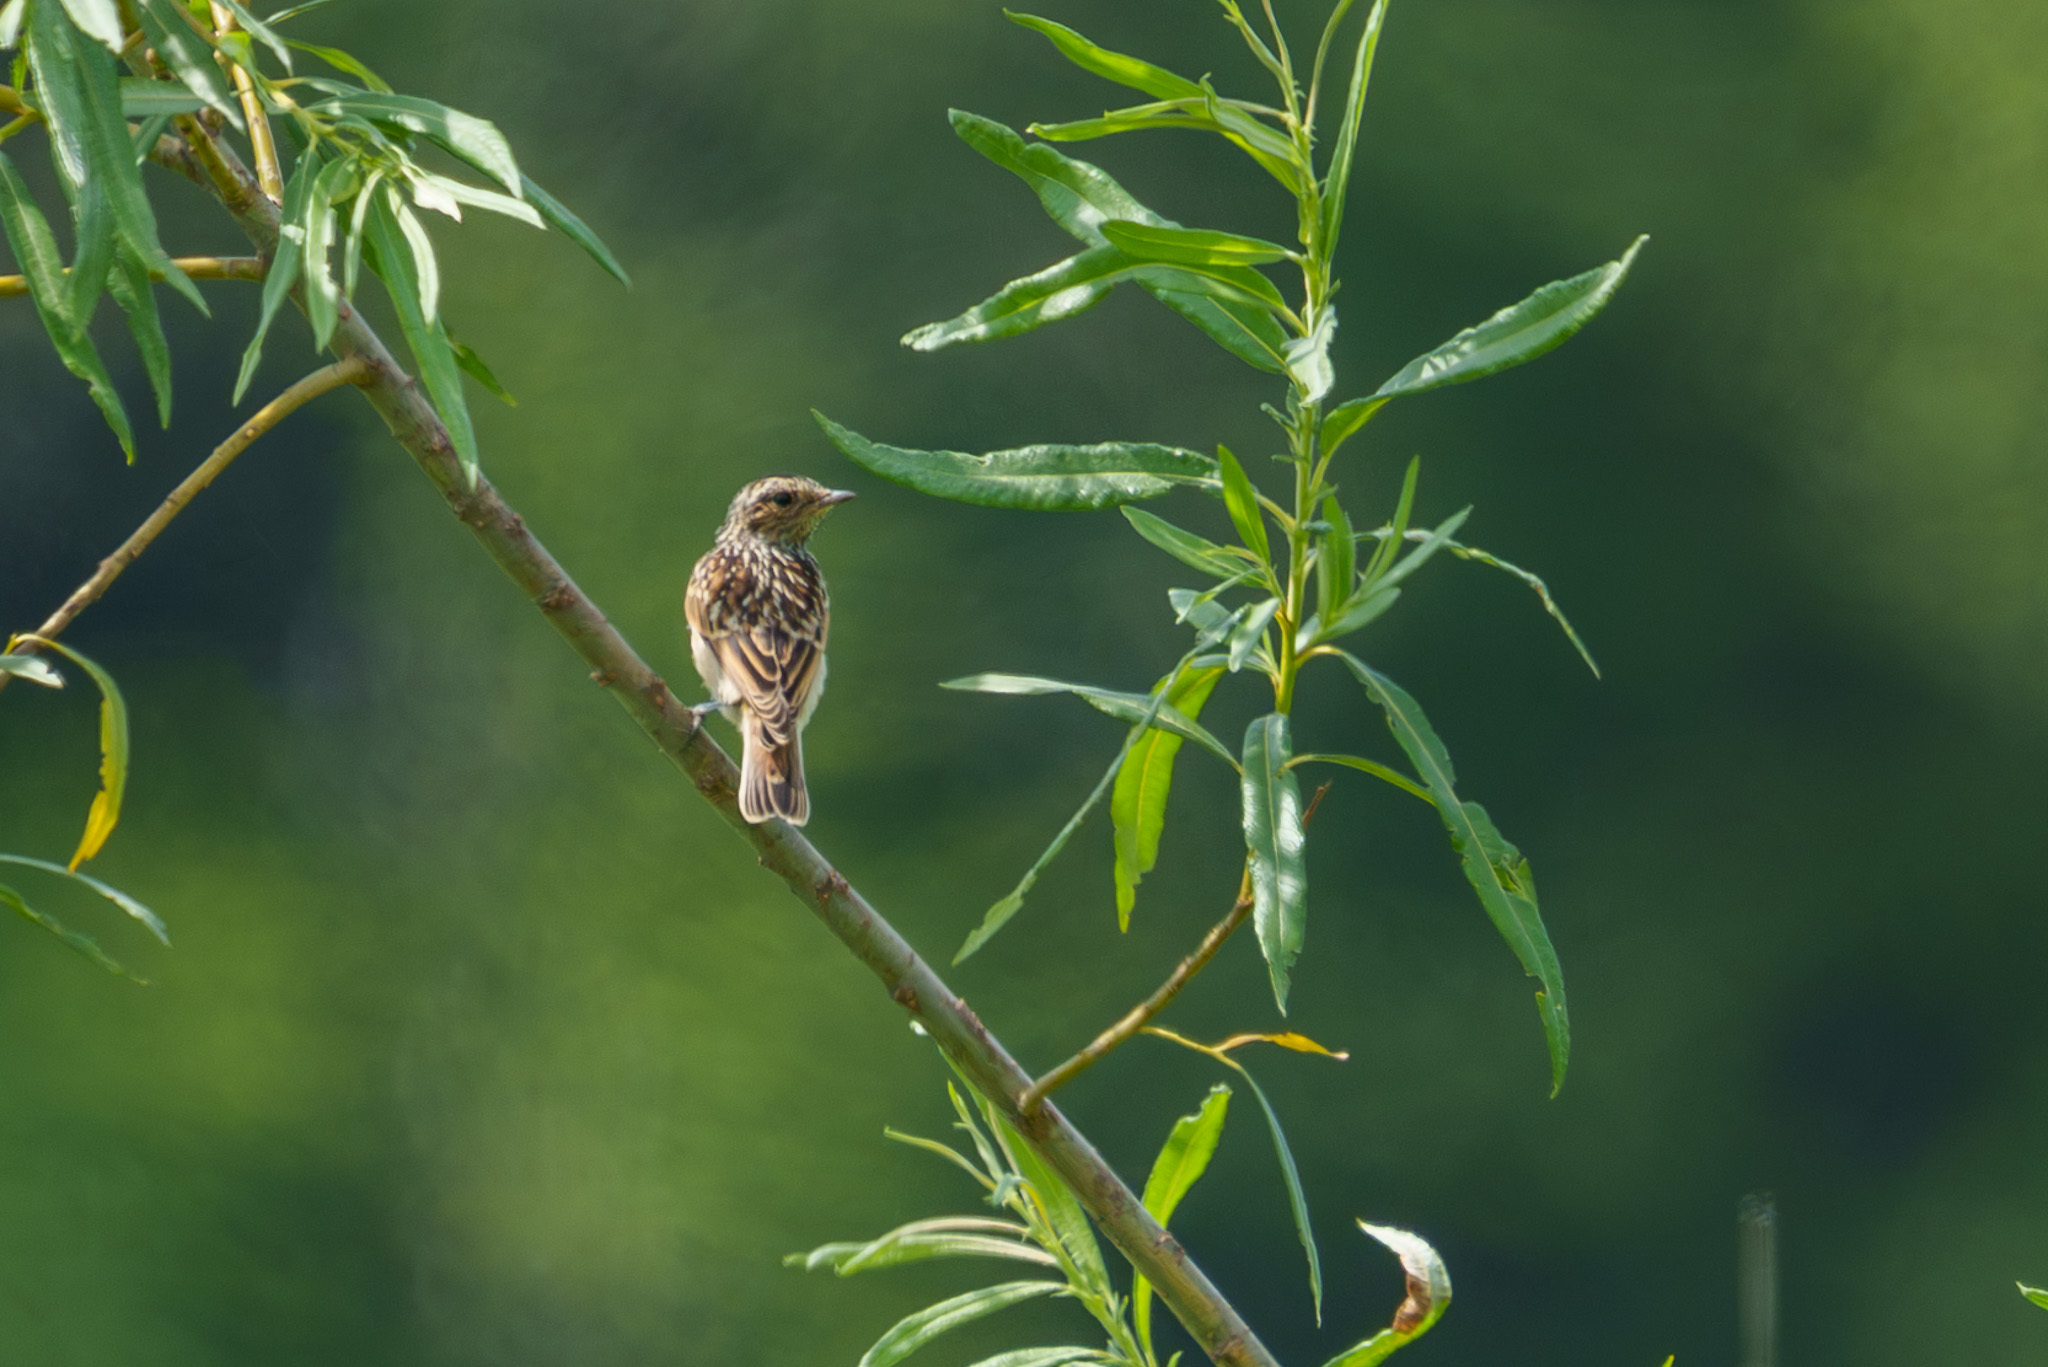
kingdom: Animalia
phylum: Chordata
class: Aves
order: Passeriformes
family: Muscicapidae
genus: Saxicola
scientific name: Saxicola rubetra
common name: Whinchat
